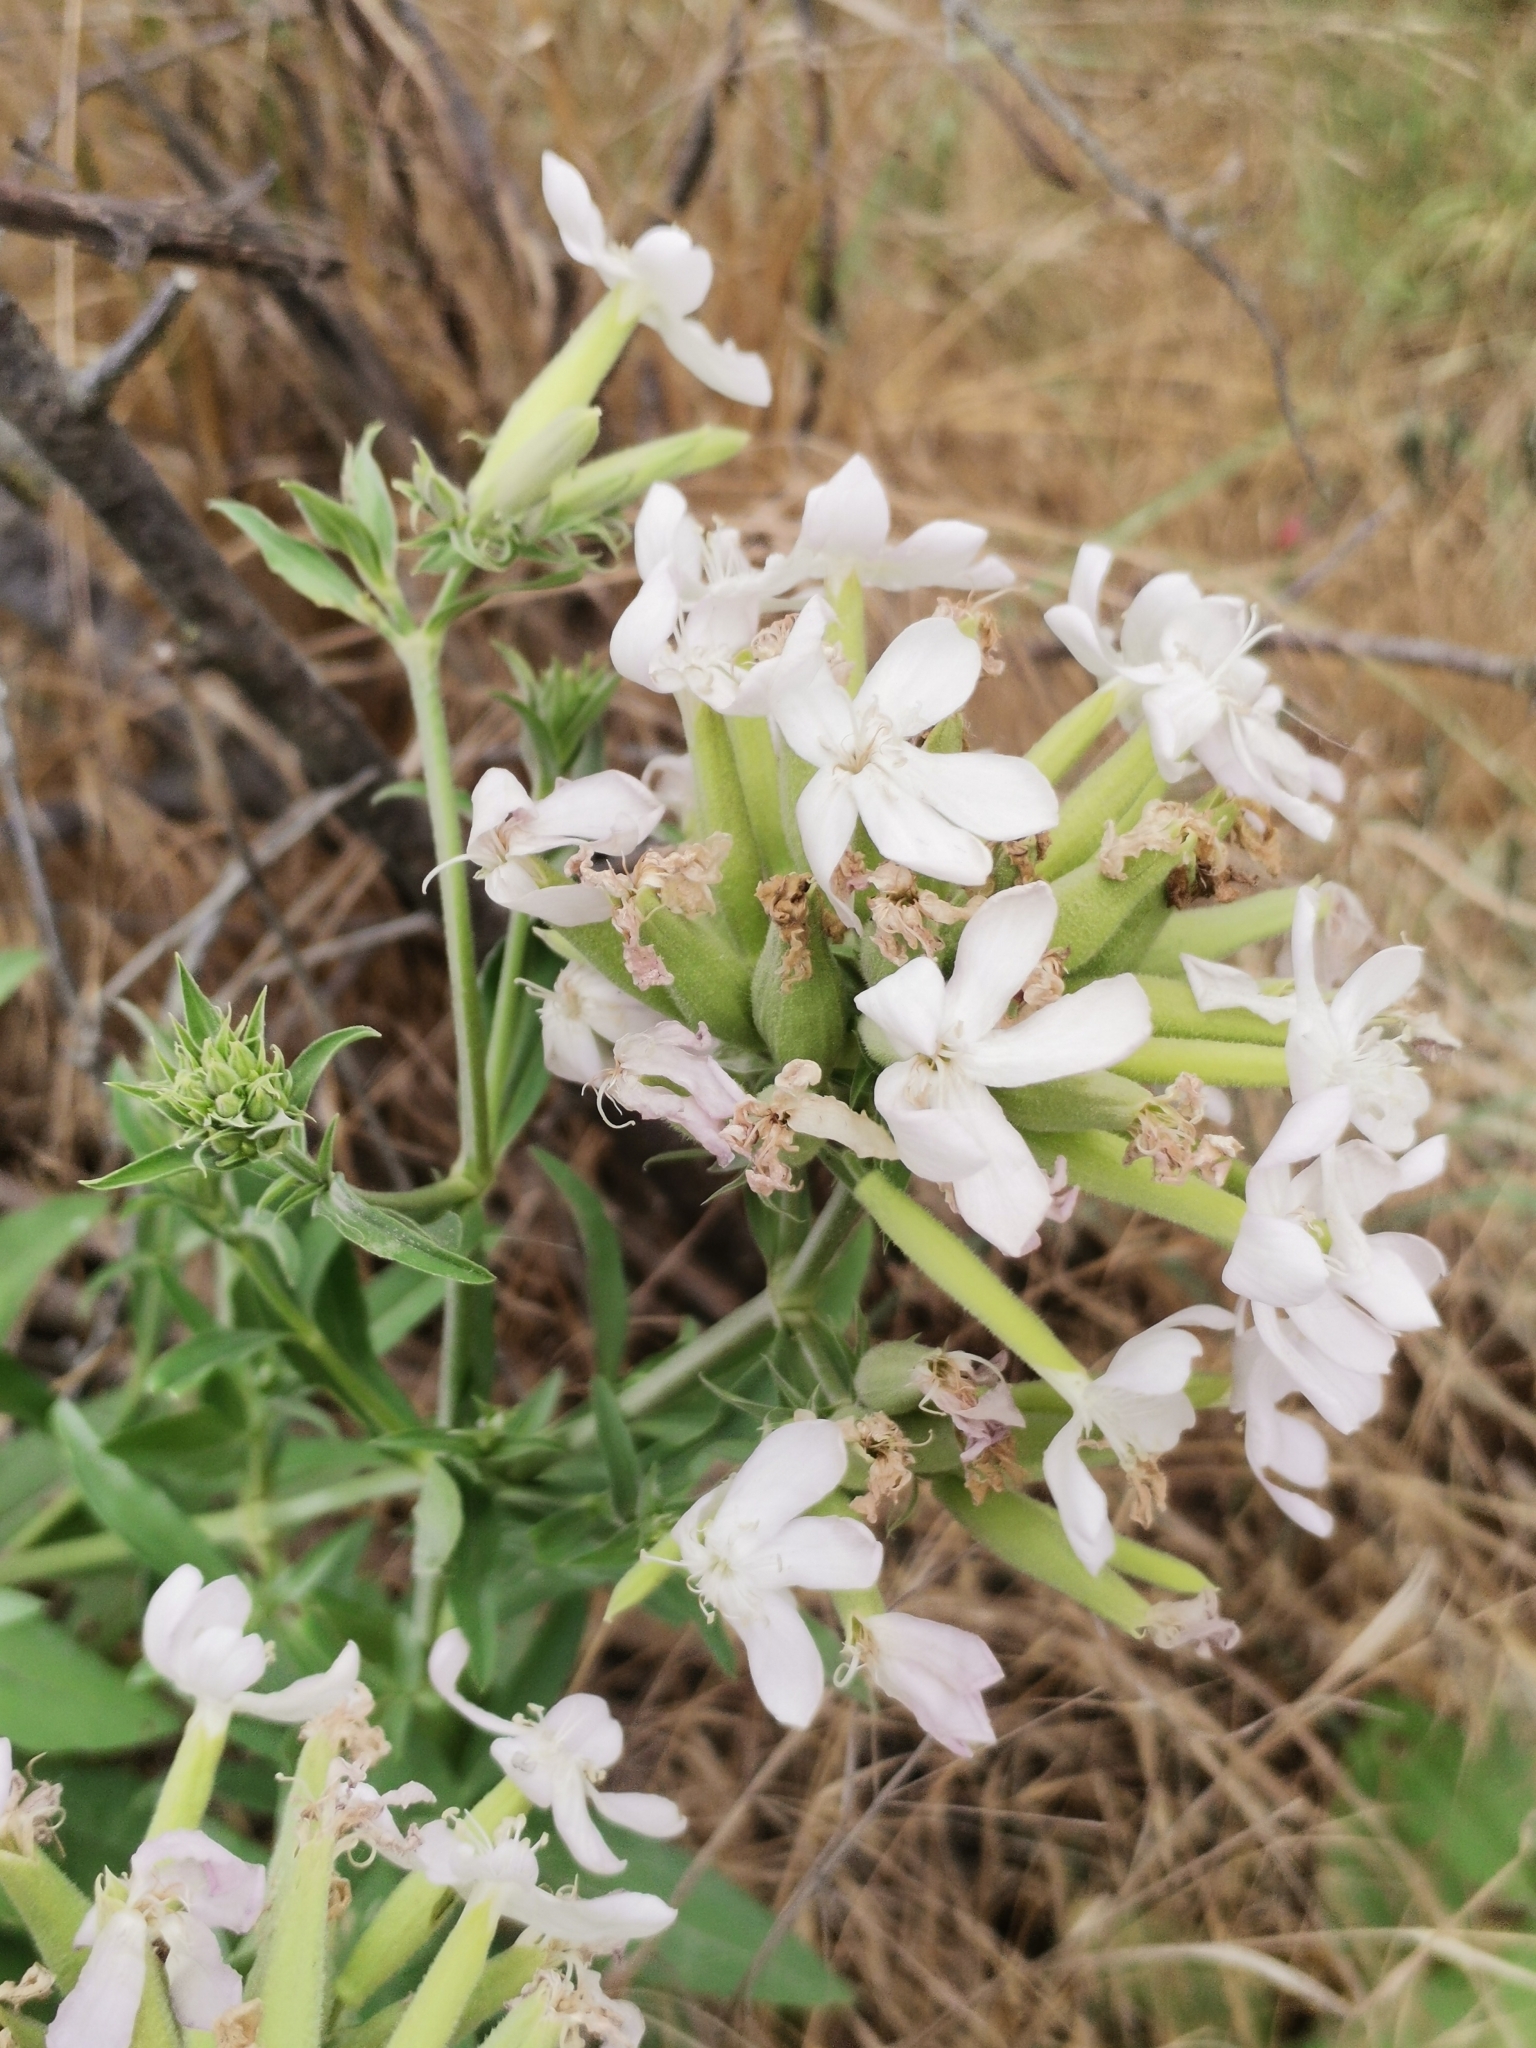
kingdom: Plantae
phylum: Tracheophyta
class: Magnoliopsida
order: Caryophyllales
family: Caryophyllaceae
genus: Saponaria
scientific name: Saponaria officinalis
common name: Soapwort
